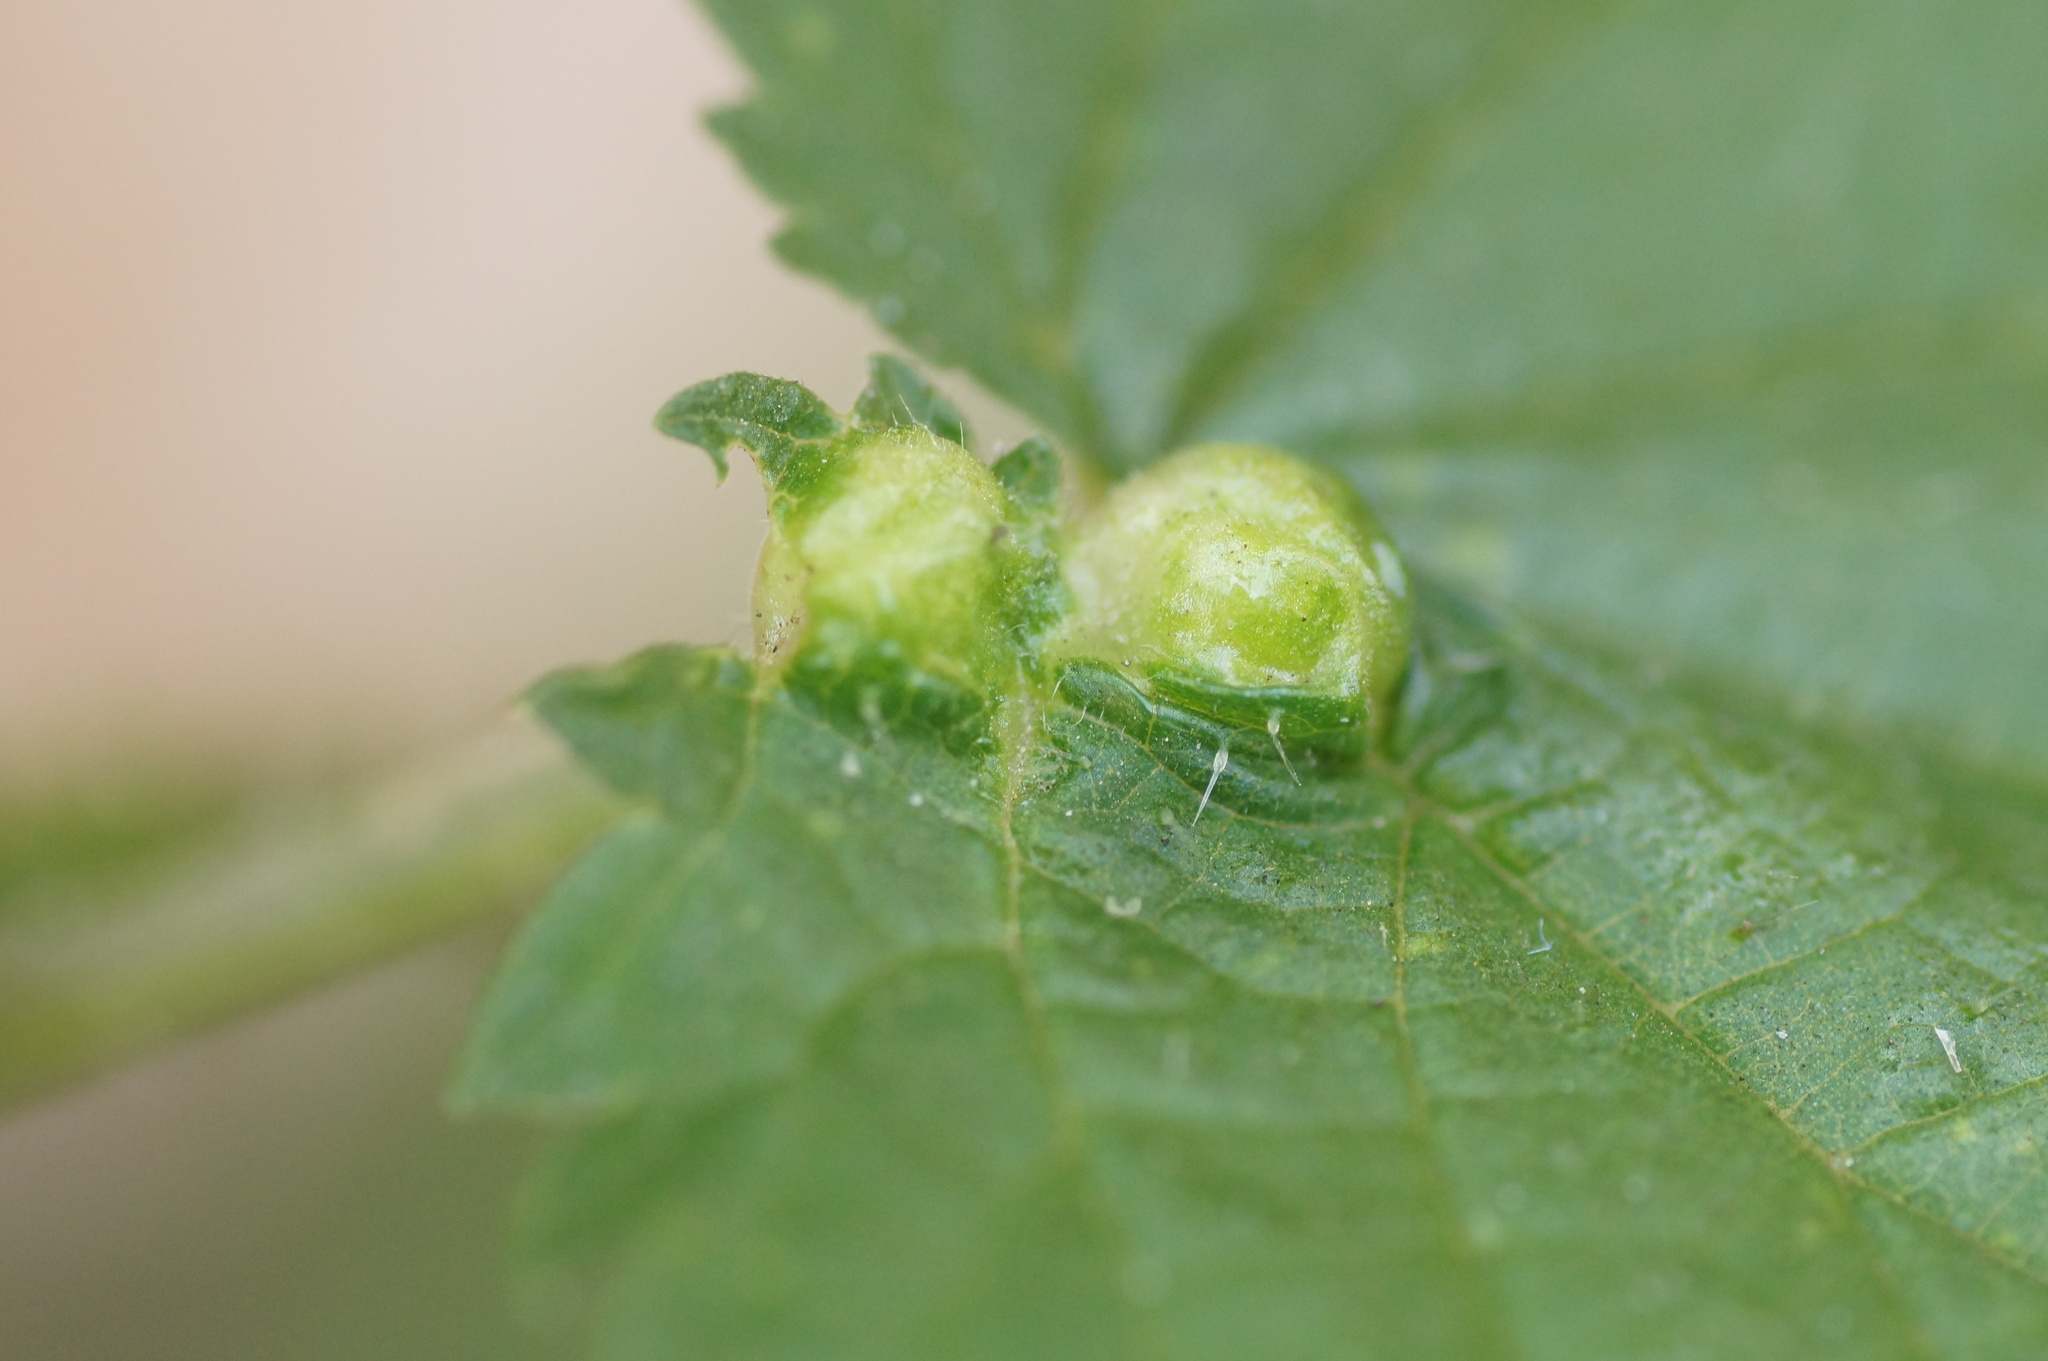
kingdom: Animalia
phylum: Arthropoda
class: Insecta
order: Diptera
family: Cecidomyiidae
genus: Dasineura
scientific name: Dasineura urticae
